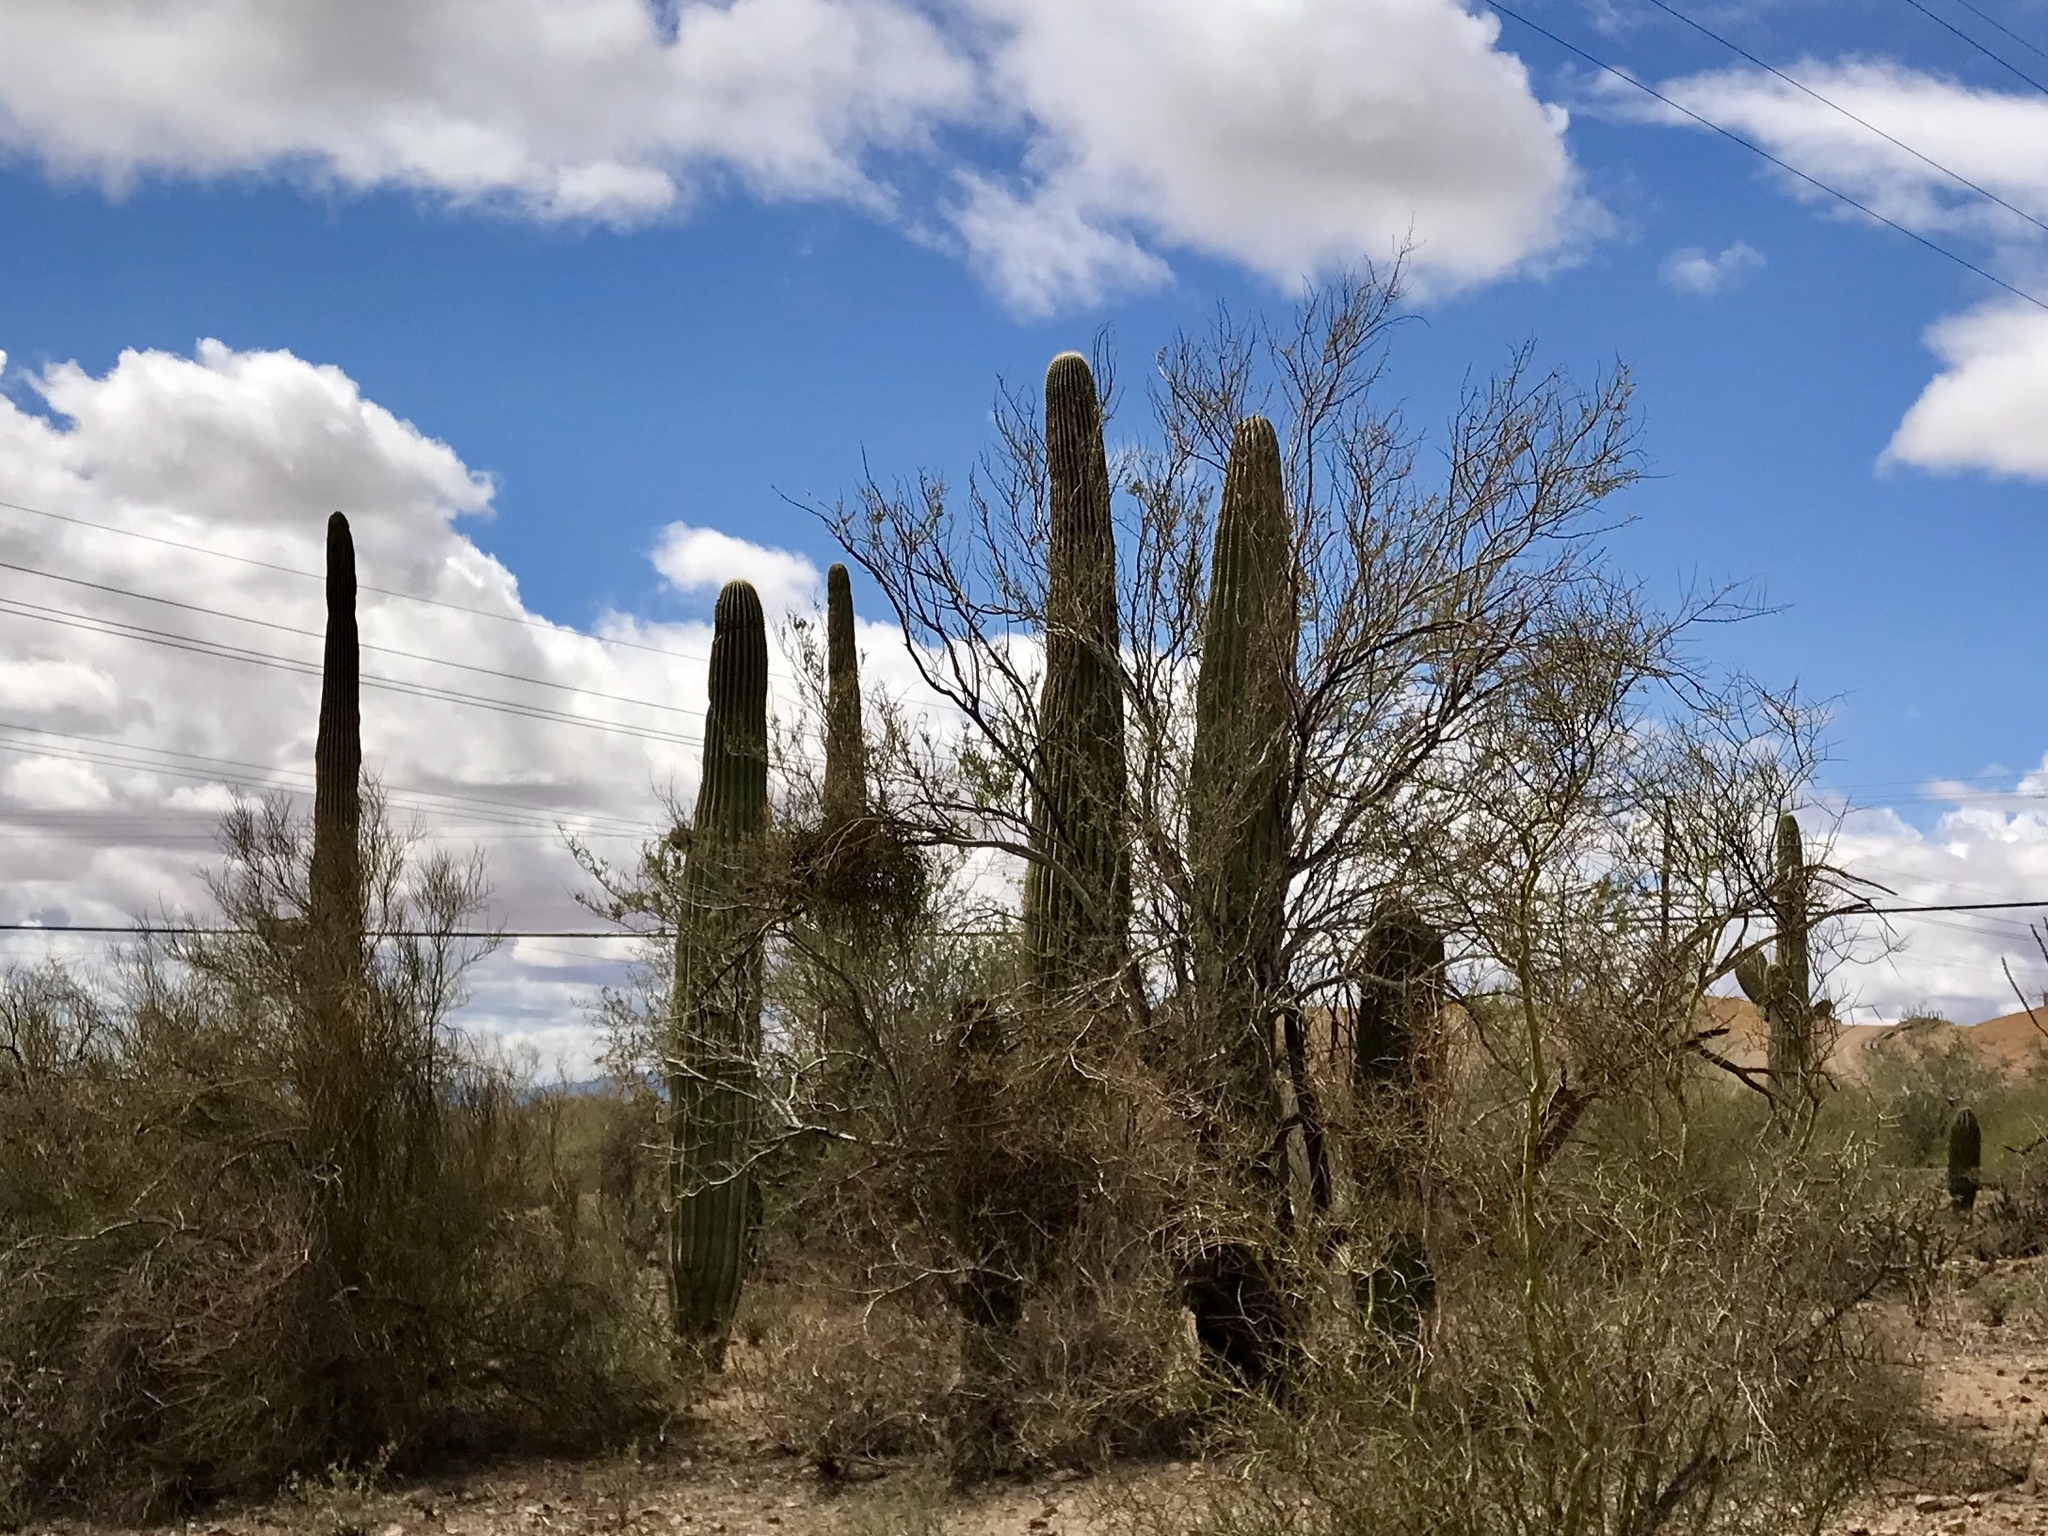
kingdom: Plantae
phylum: Tracheophyta
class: Magnoliopsida
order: Caryophyllales
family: Cactaceae
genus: Carnegiea
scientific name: Carnegiea gigantea
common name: Saguaro
